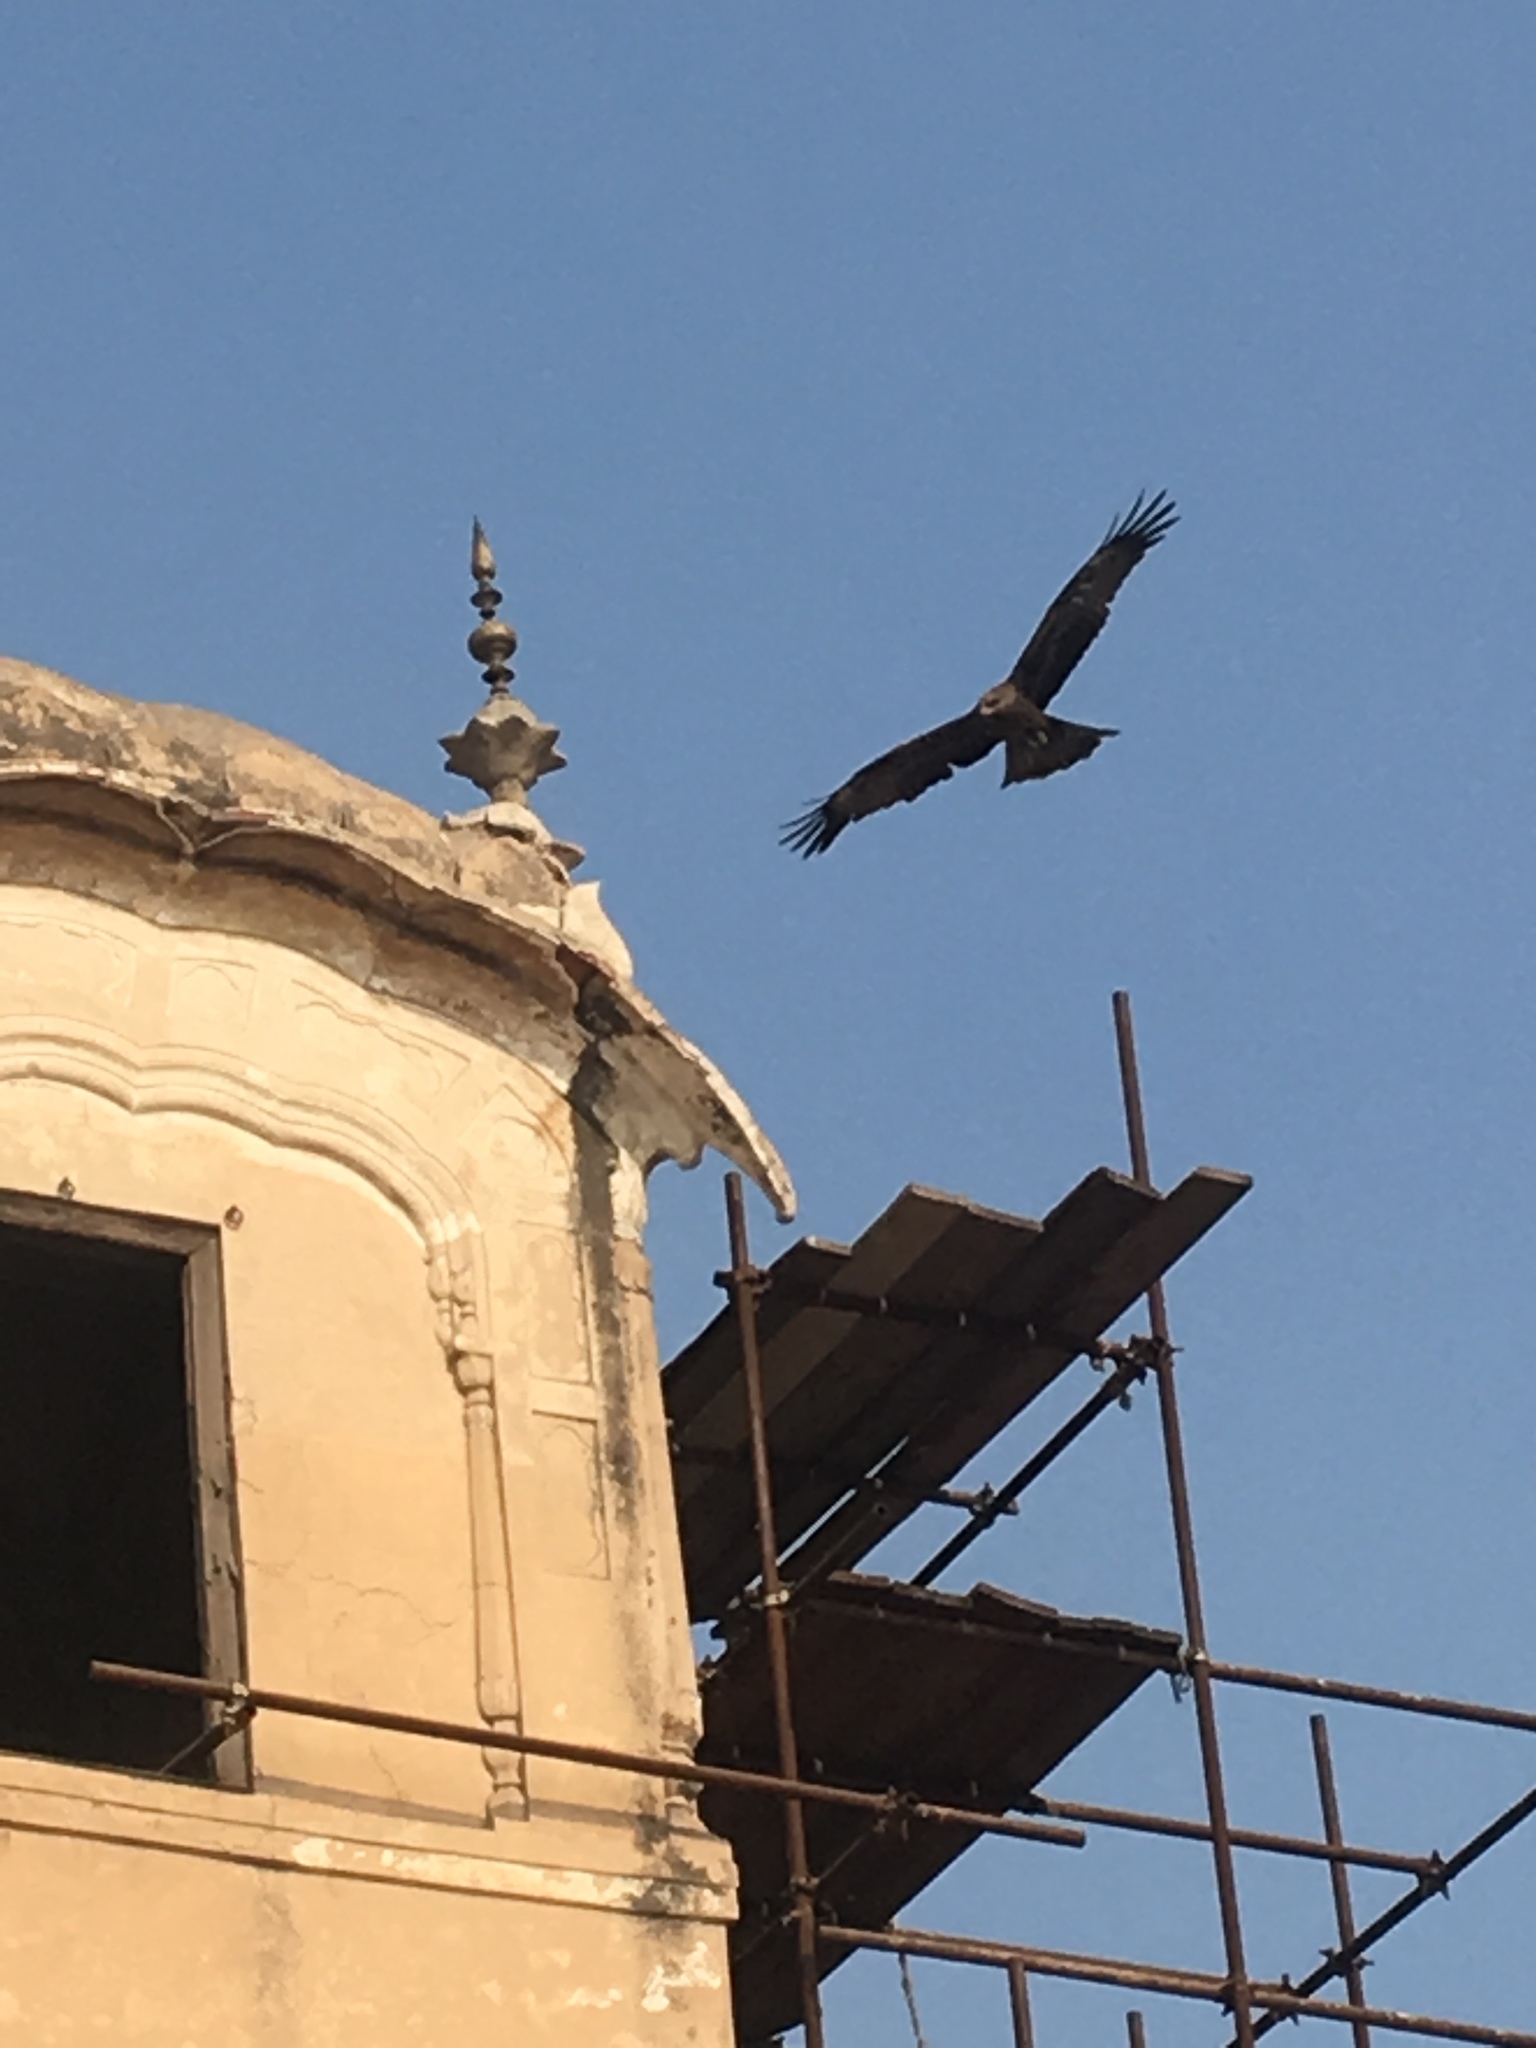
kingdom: Animalia
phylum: Chordata
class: Aves
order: Accipitriformes
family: Accipitridae
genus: Milvus
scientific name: Milvus migrans
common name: Black kite
